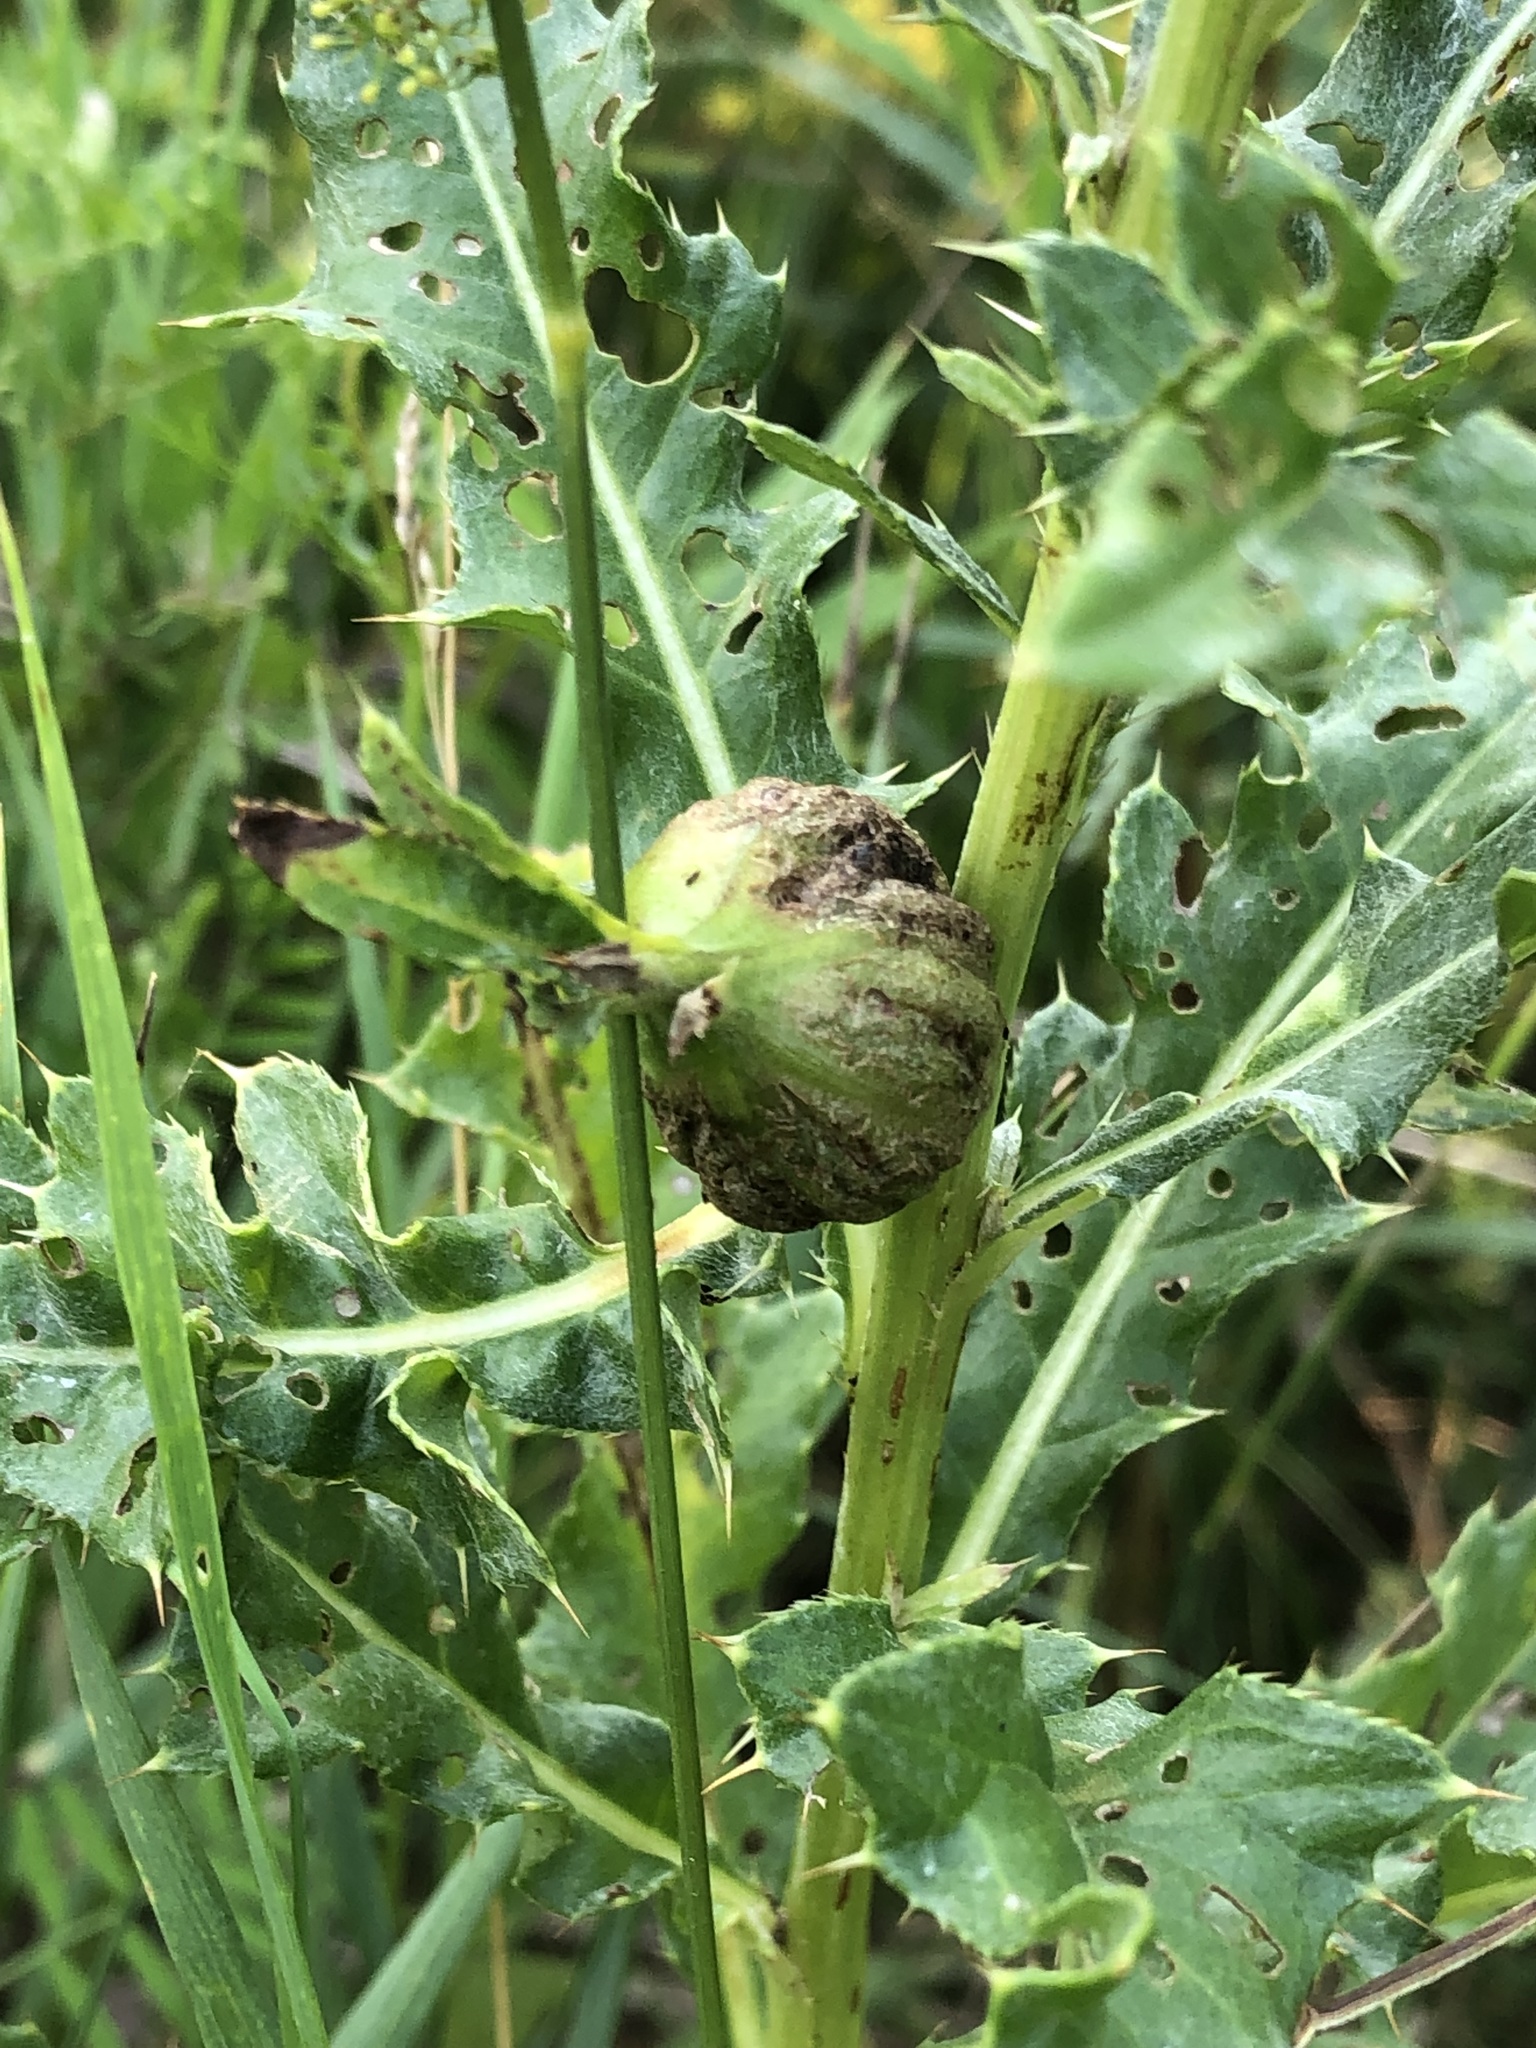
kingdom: Animalia
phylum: Arthropoda
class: Insecta
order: Diptera
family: Tephritidae
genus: Urophora
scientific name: Urophora cardui
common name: Fruit fly
